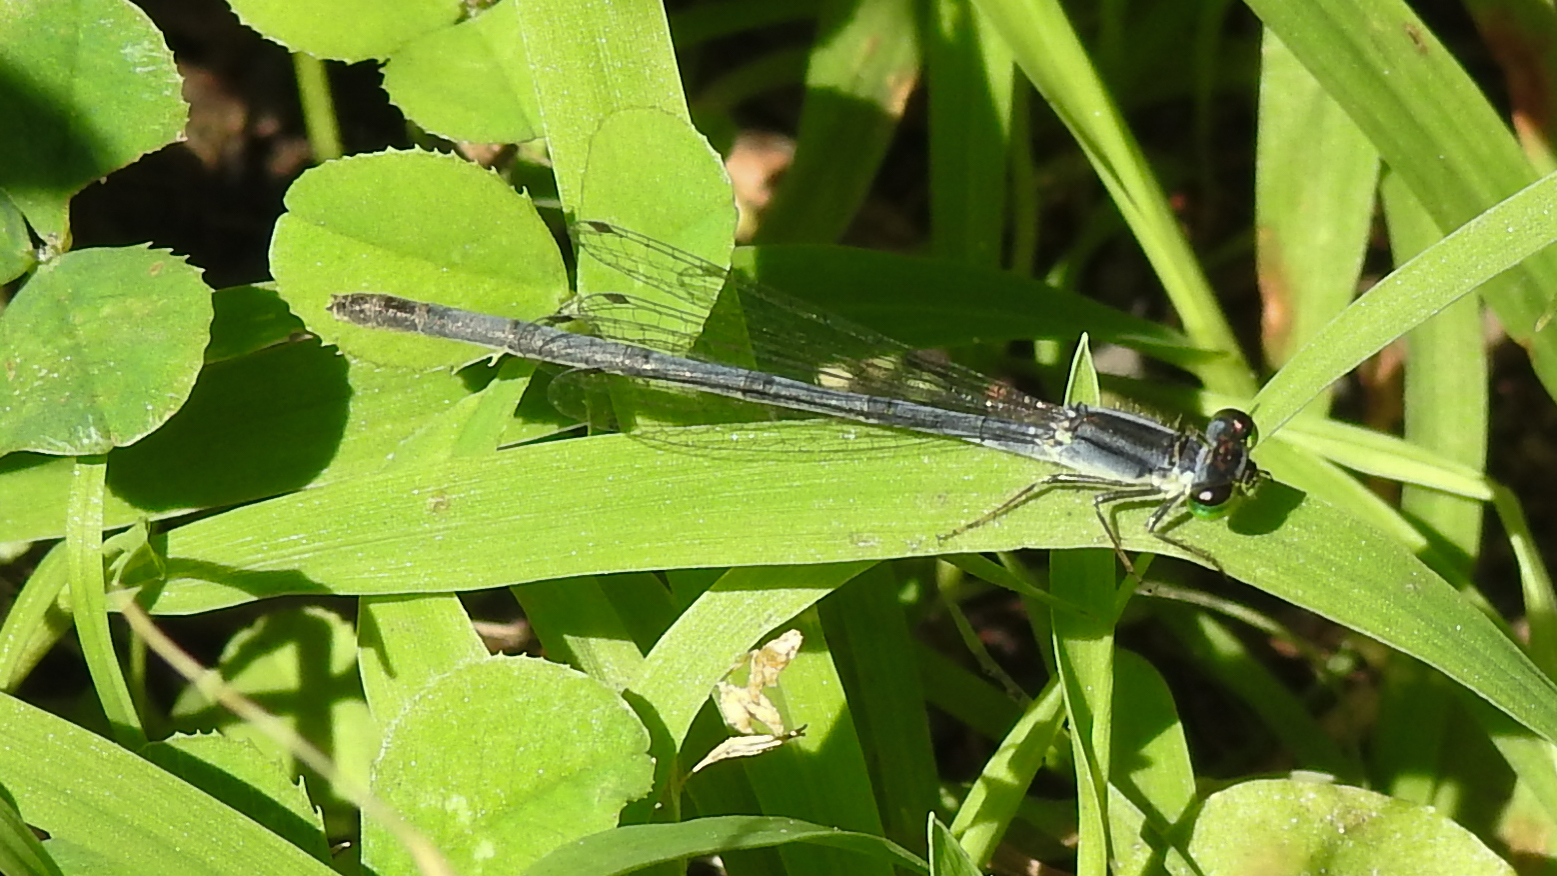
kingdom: Animalia
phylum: Arthropoda
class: Insecta
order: Odonata
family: Coenagrionidae
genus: Ischnura
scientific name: Ischnura verticalis
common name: Eastern forktail
